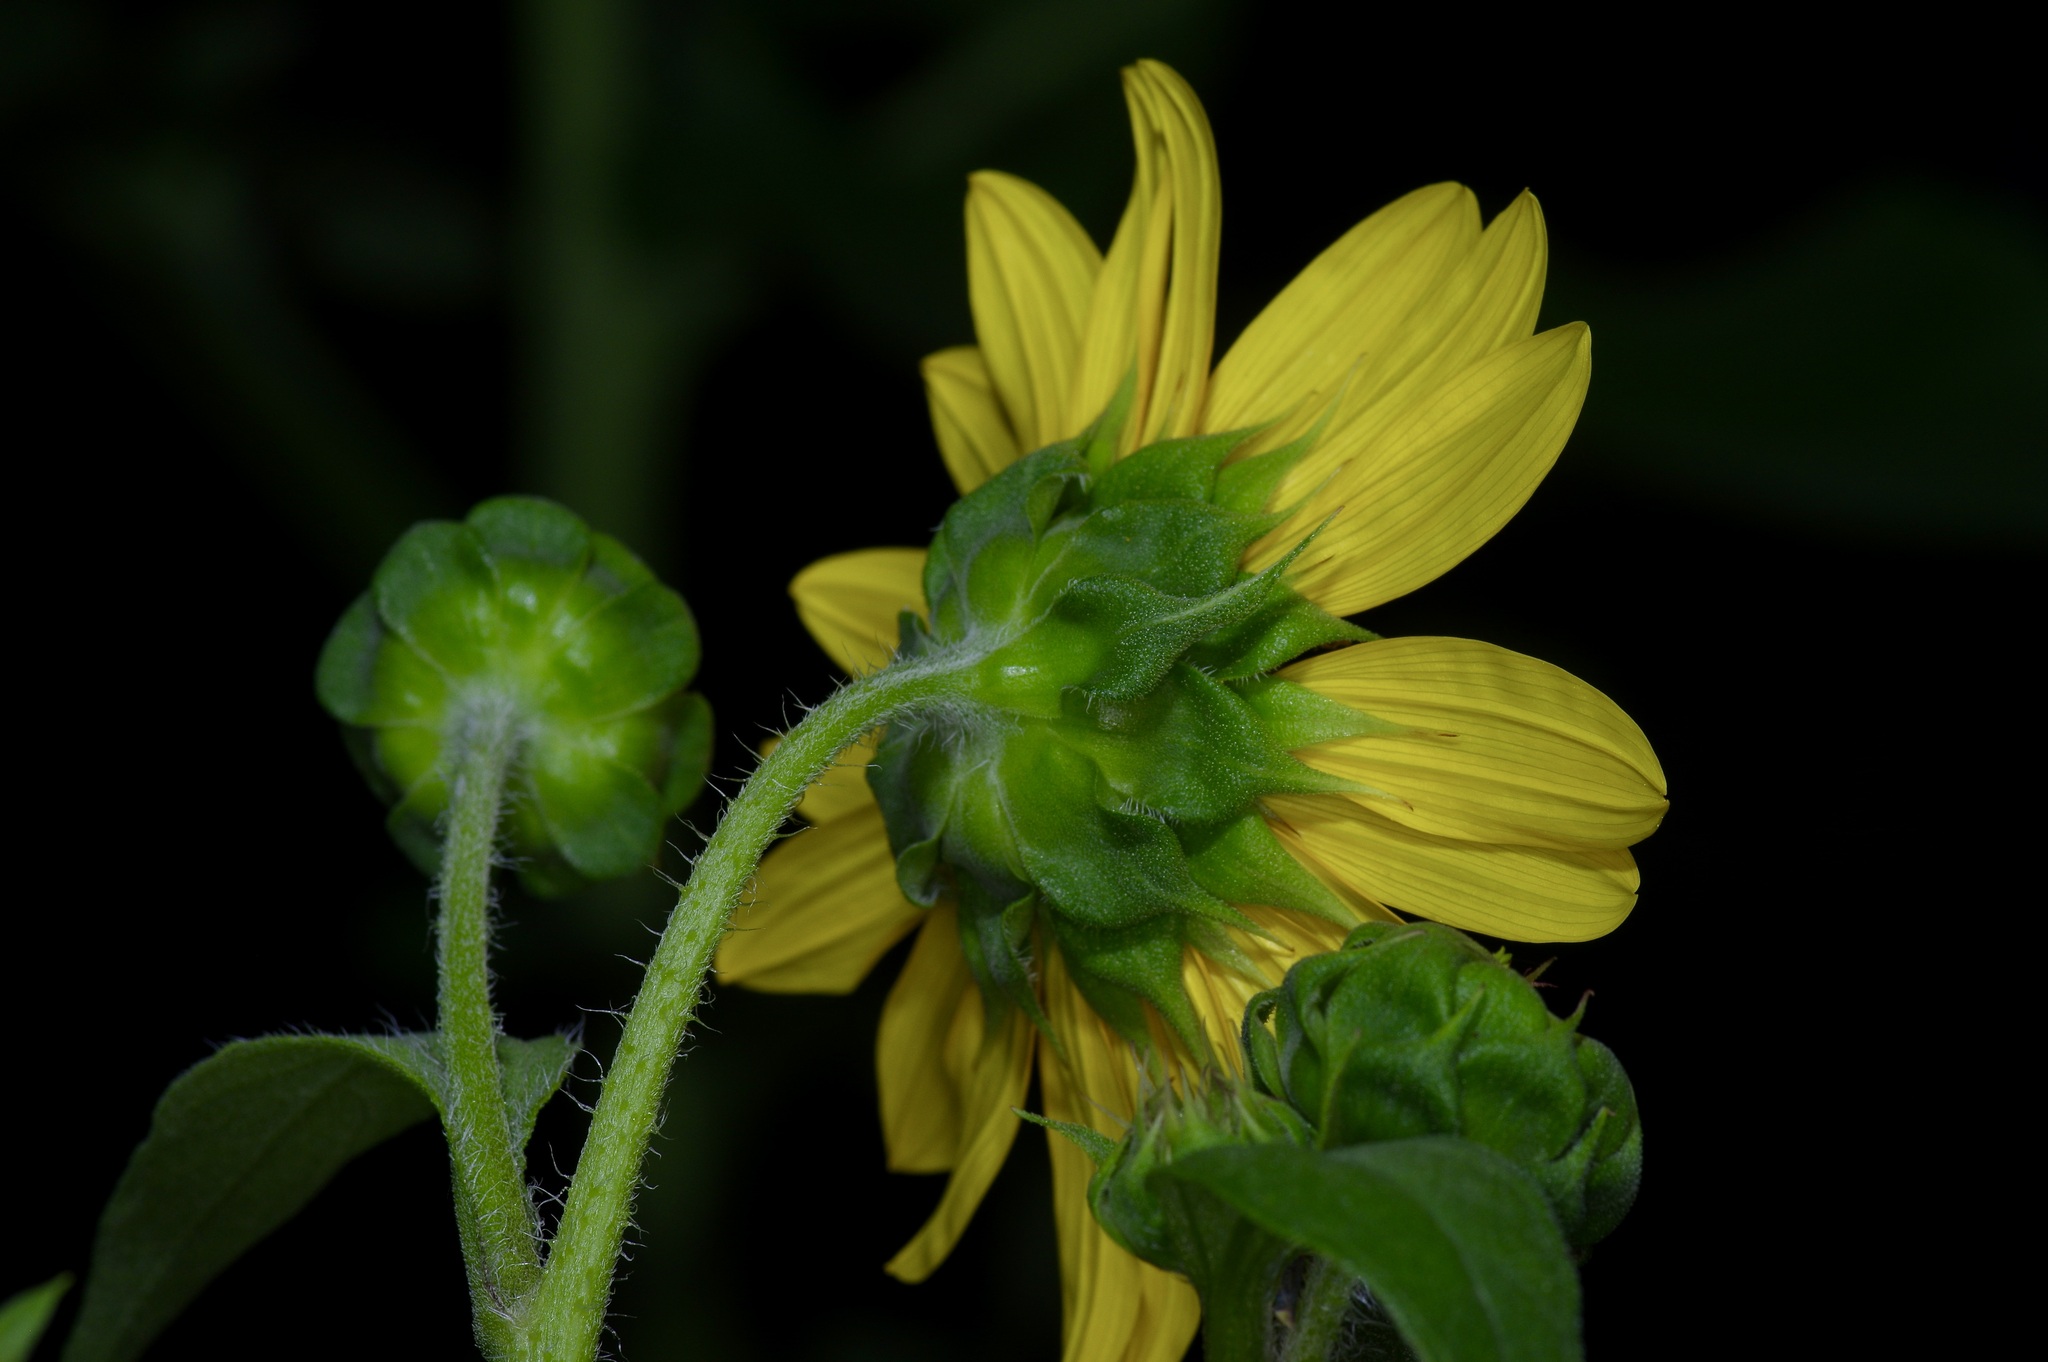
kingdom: Plantae
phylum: Tracheophyta
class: Magnoliopsida
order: Asterales
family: Asteraceae
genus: Helianthus
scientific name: Helianthus annuus
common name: Sunflower
